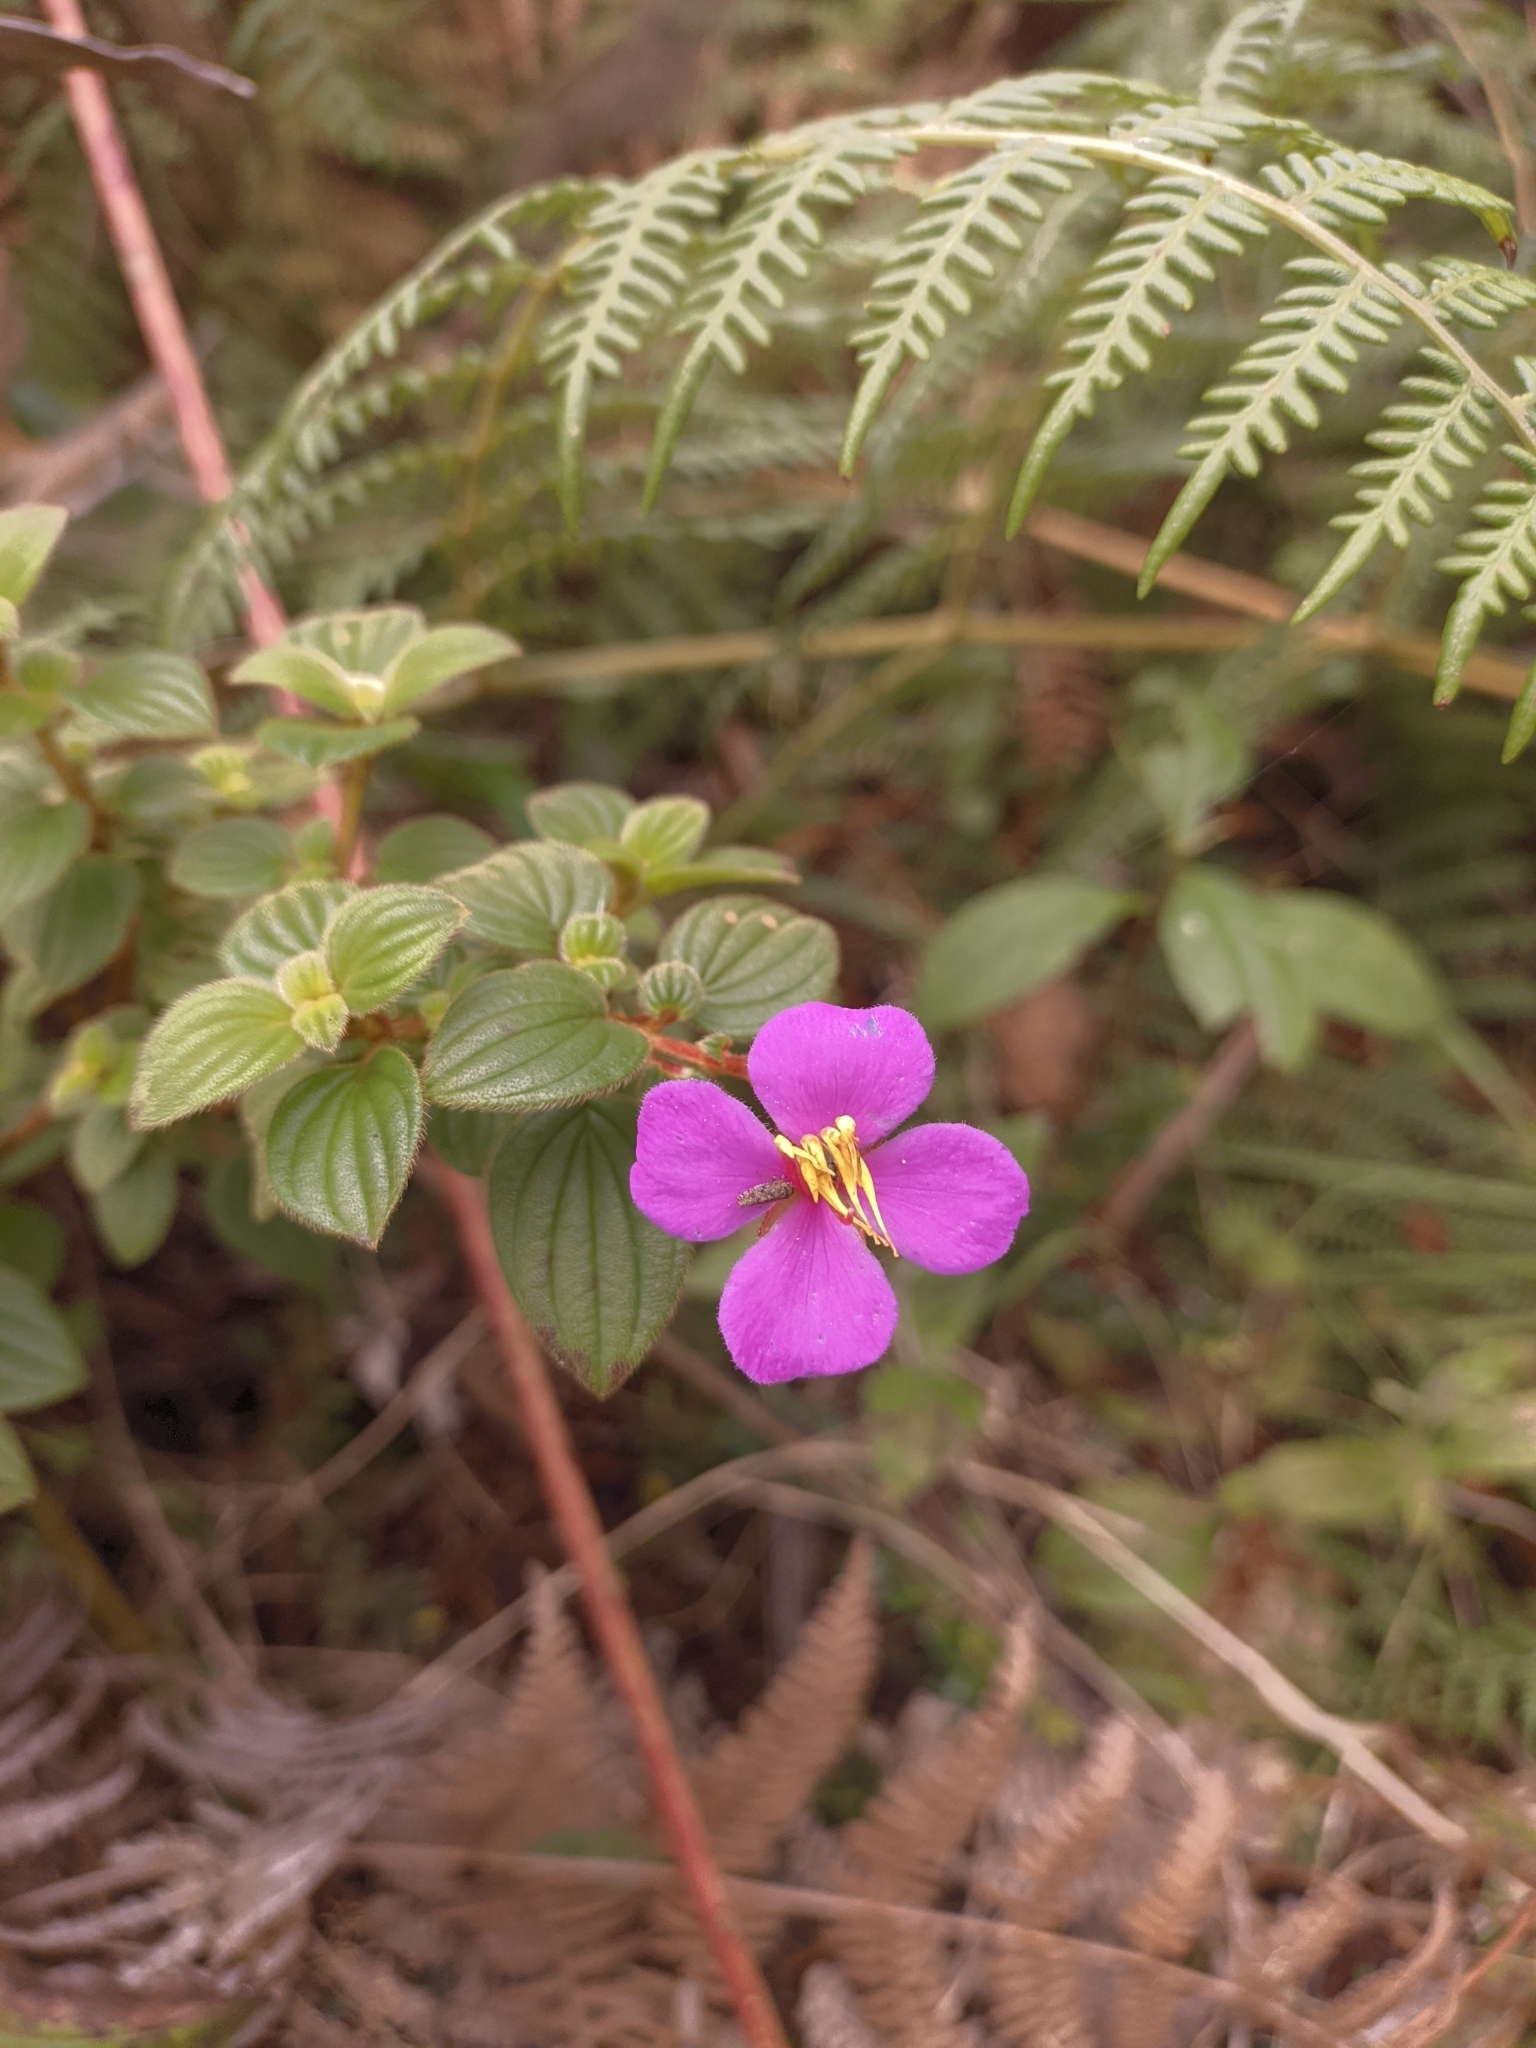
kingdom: Plantae
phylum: Tracheophyta
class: Magnoliopsida
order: Myrtales
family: Melastomataceae
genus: Monochaetum
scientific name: Monochaetum bonplandii
